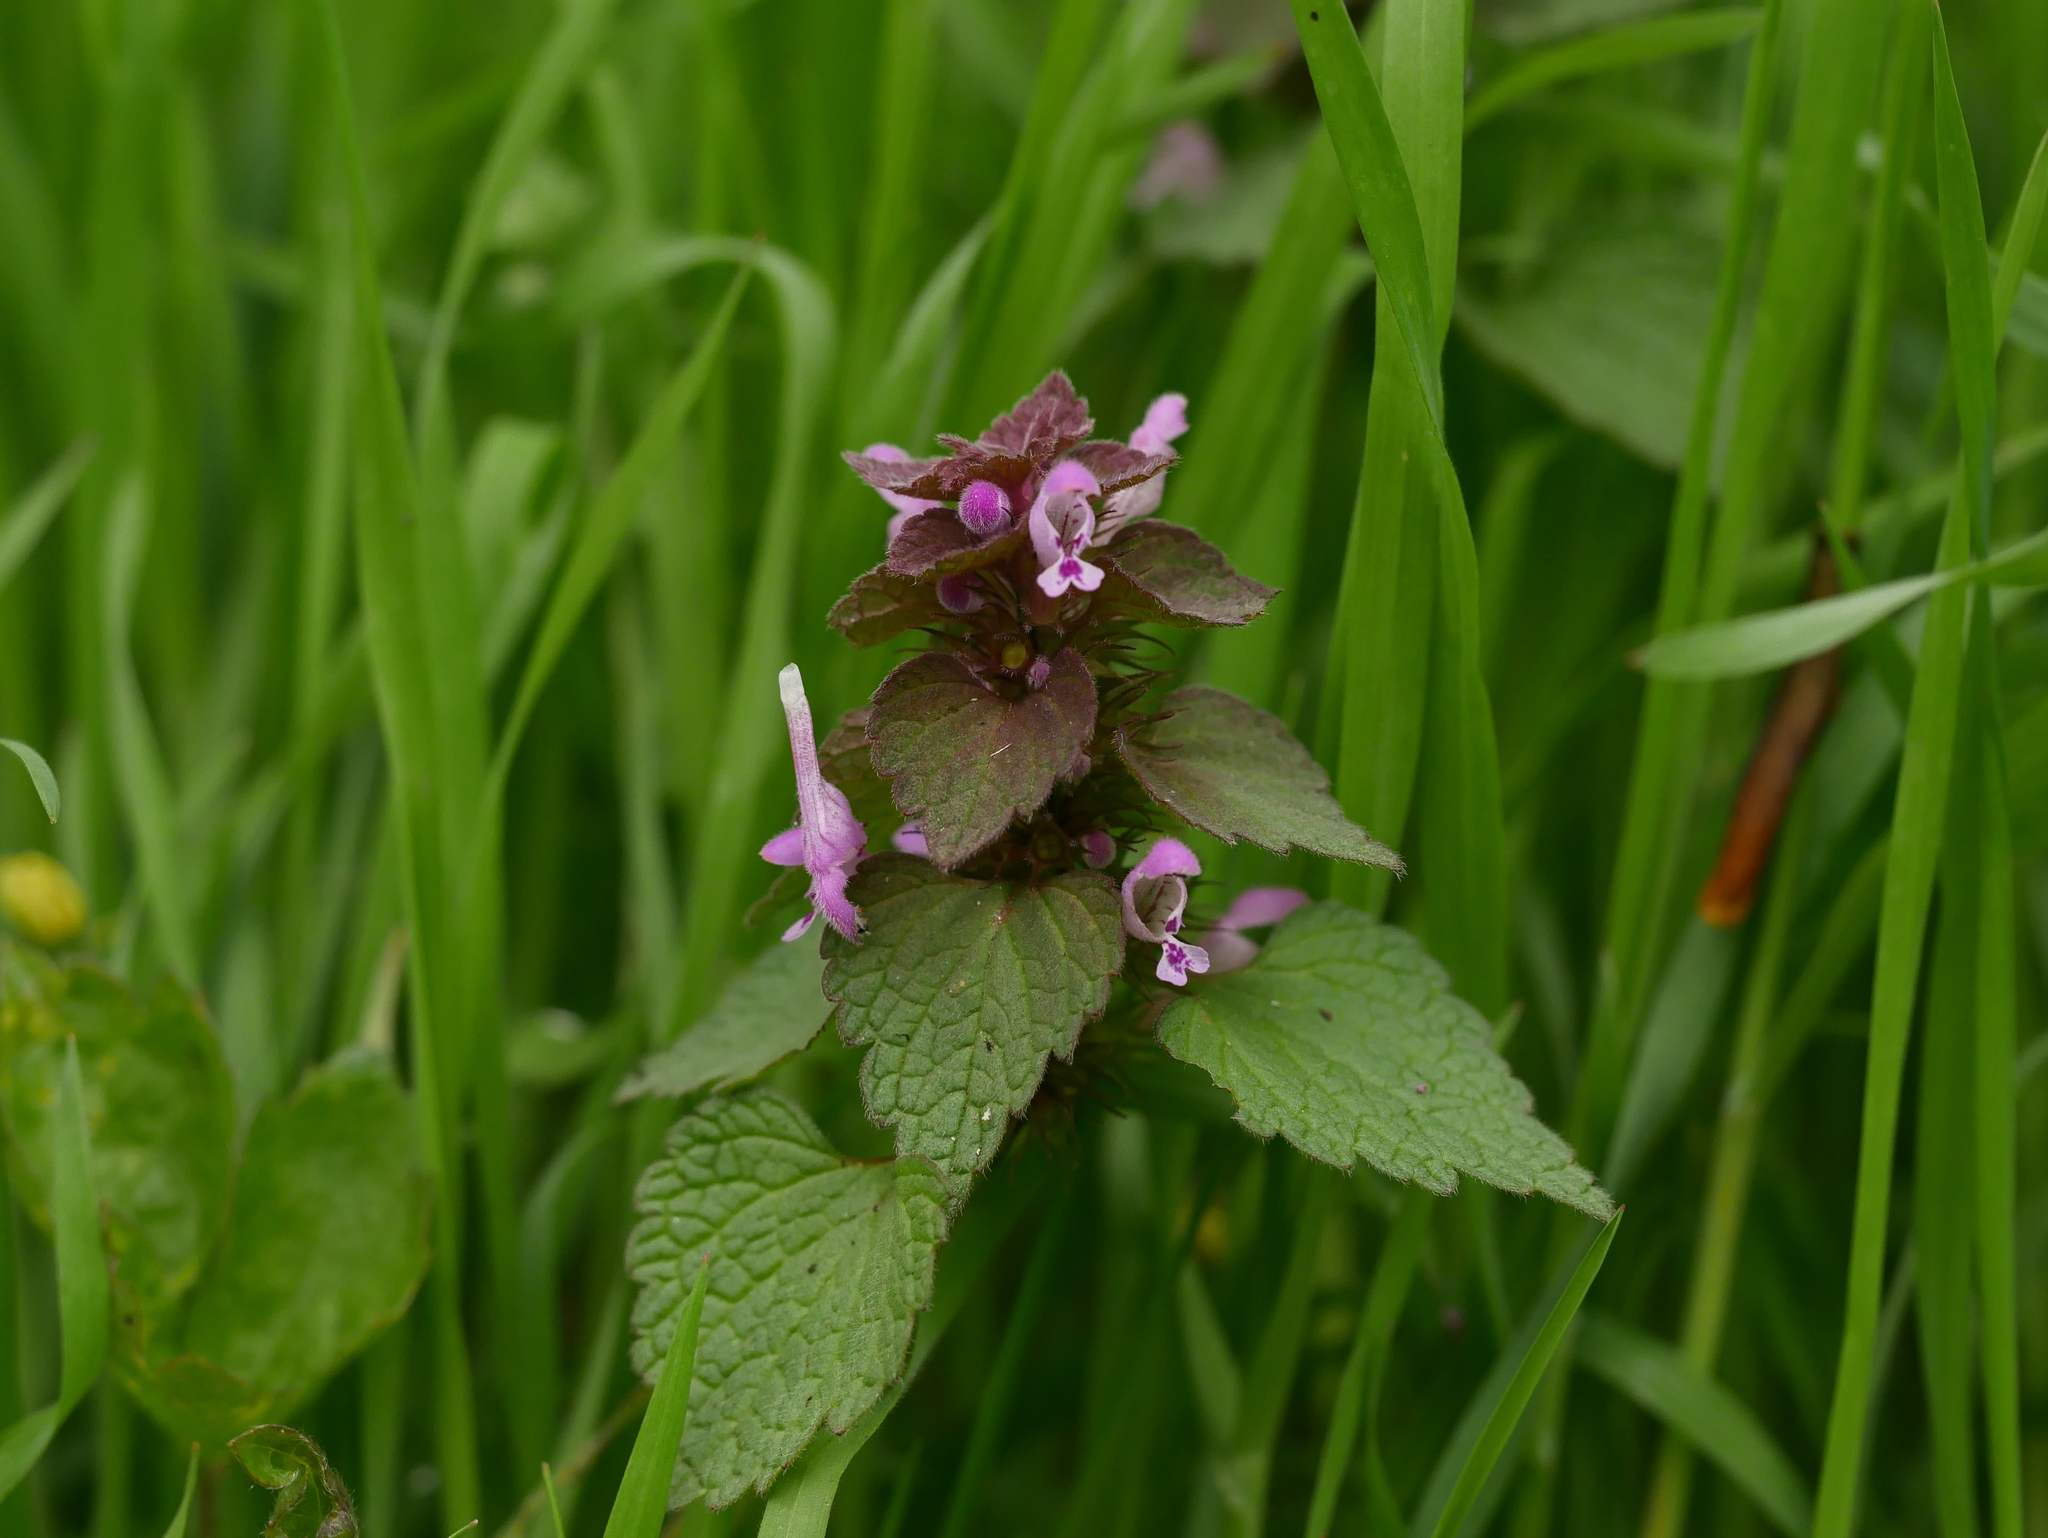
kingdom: Plantae
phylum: Tracheophyta
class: Magnoliopsida
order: Lamiales
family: Lamiaceae
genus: Lamium
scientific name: Lamium purpureum
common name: Red dead-nettle
